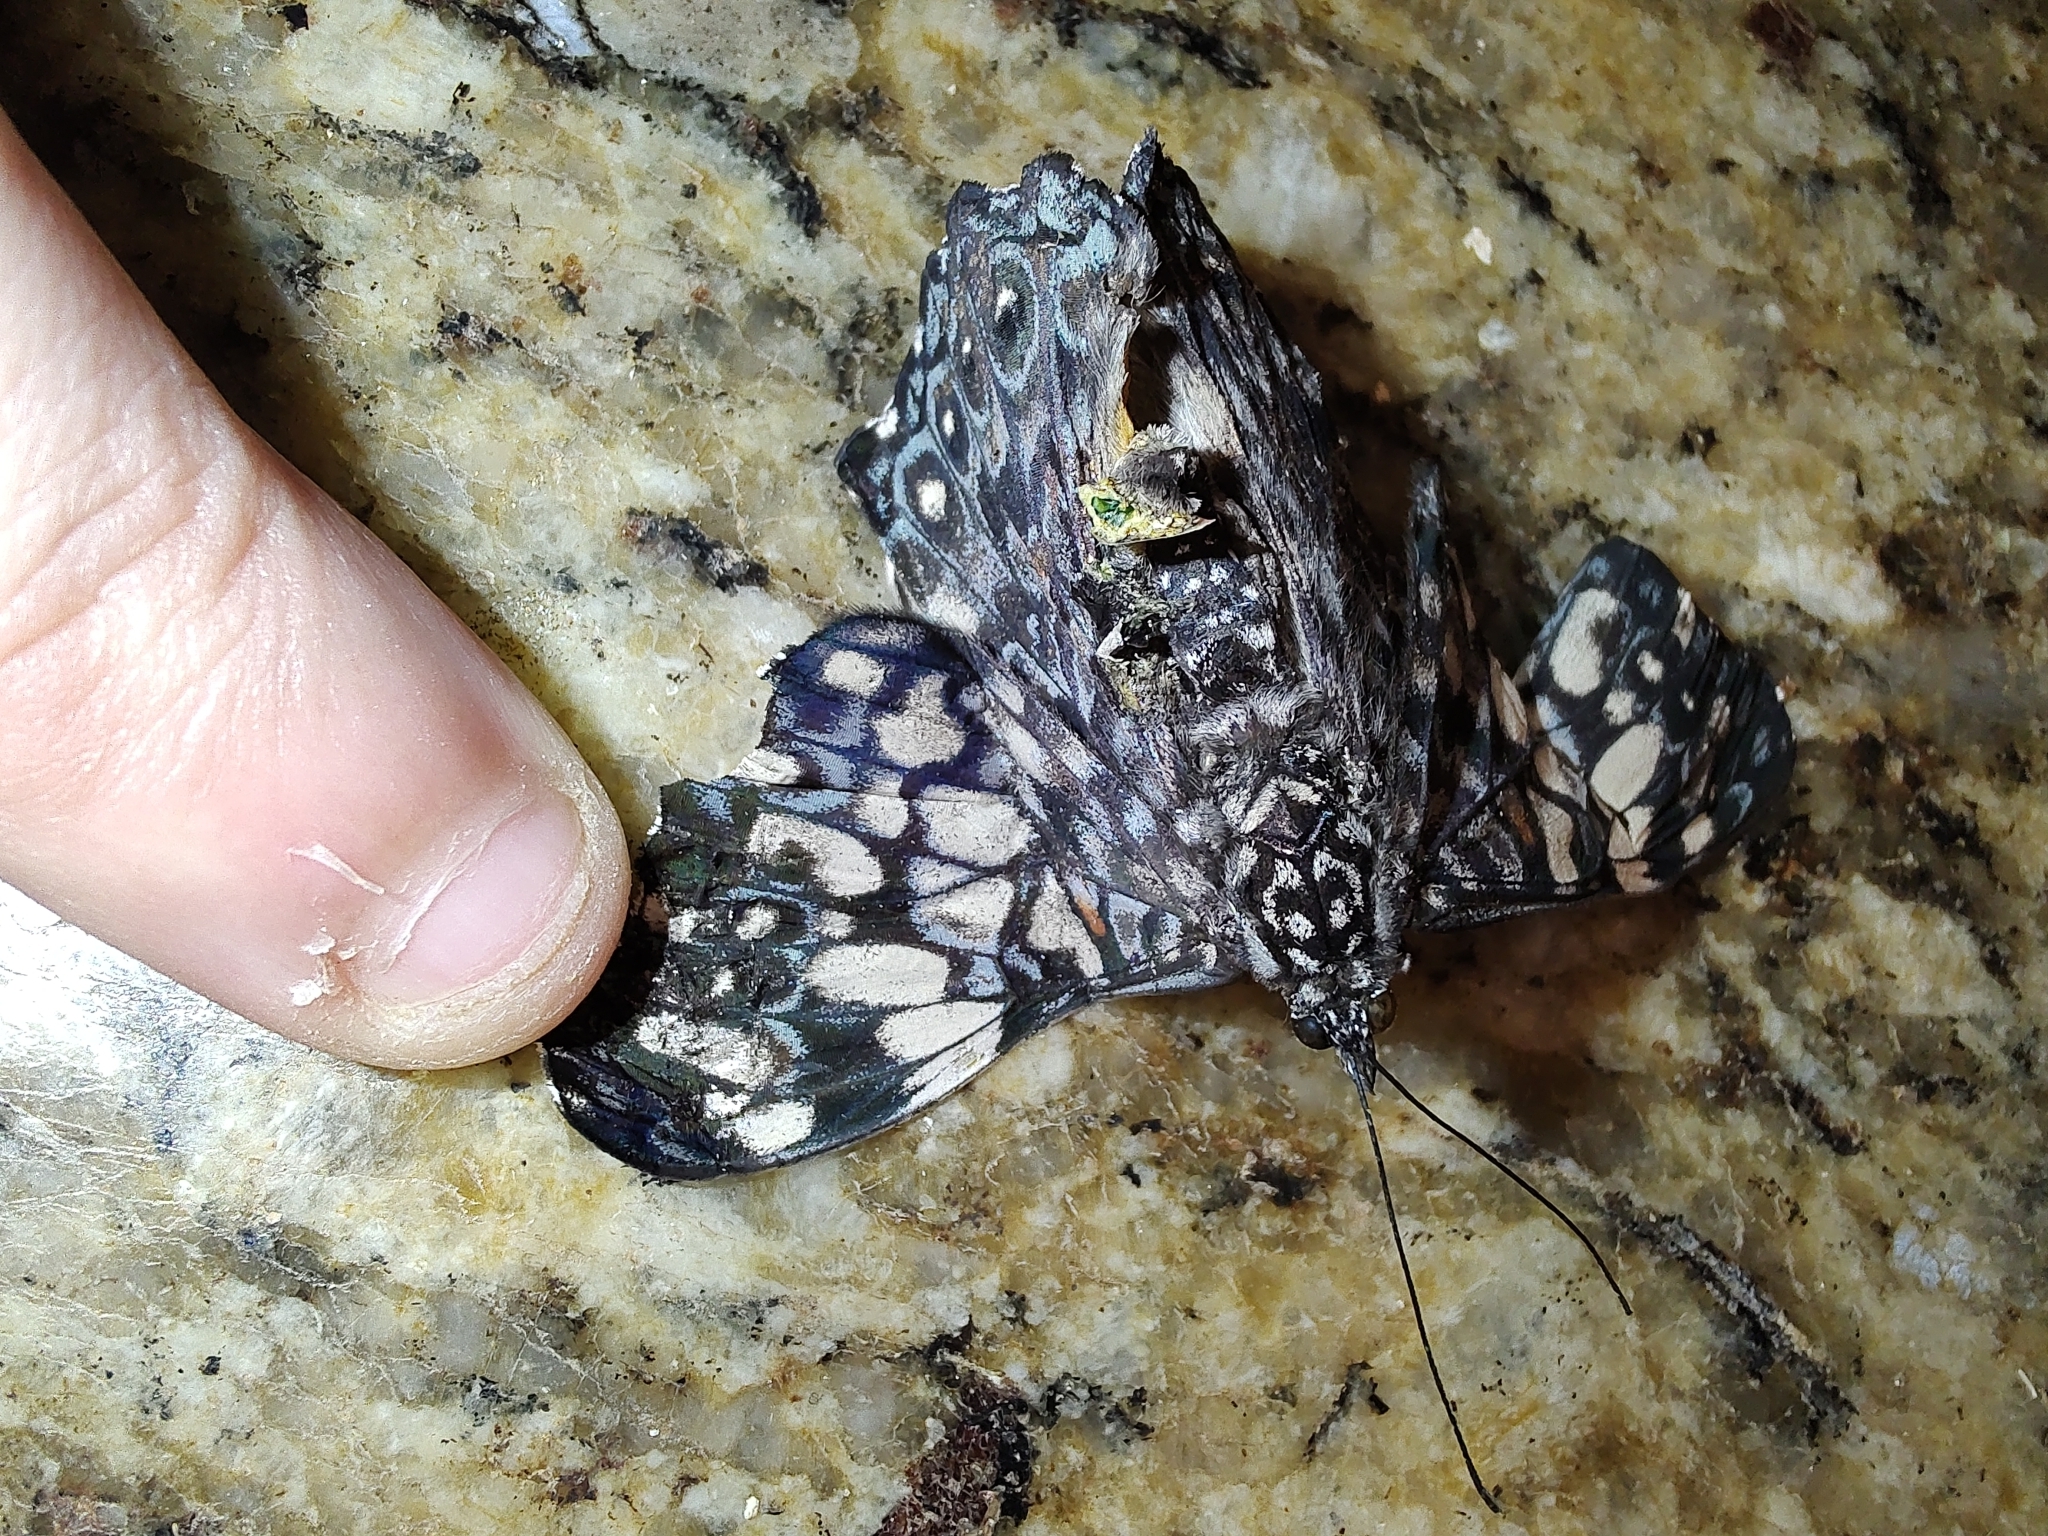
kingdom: Animalia
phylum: Arthropoda
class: Insecta
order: Lepidoptera
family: Nymphalidae
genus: Hamadryas
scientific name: Hamadryas fornax
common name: Orange cracker
